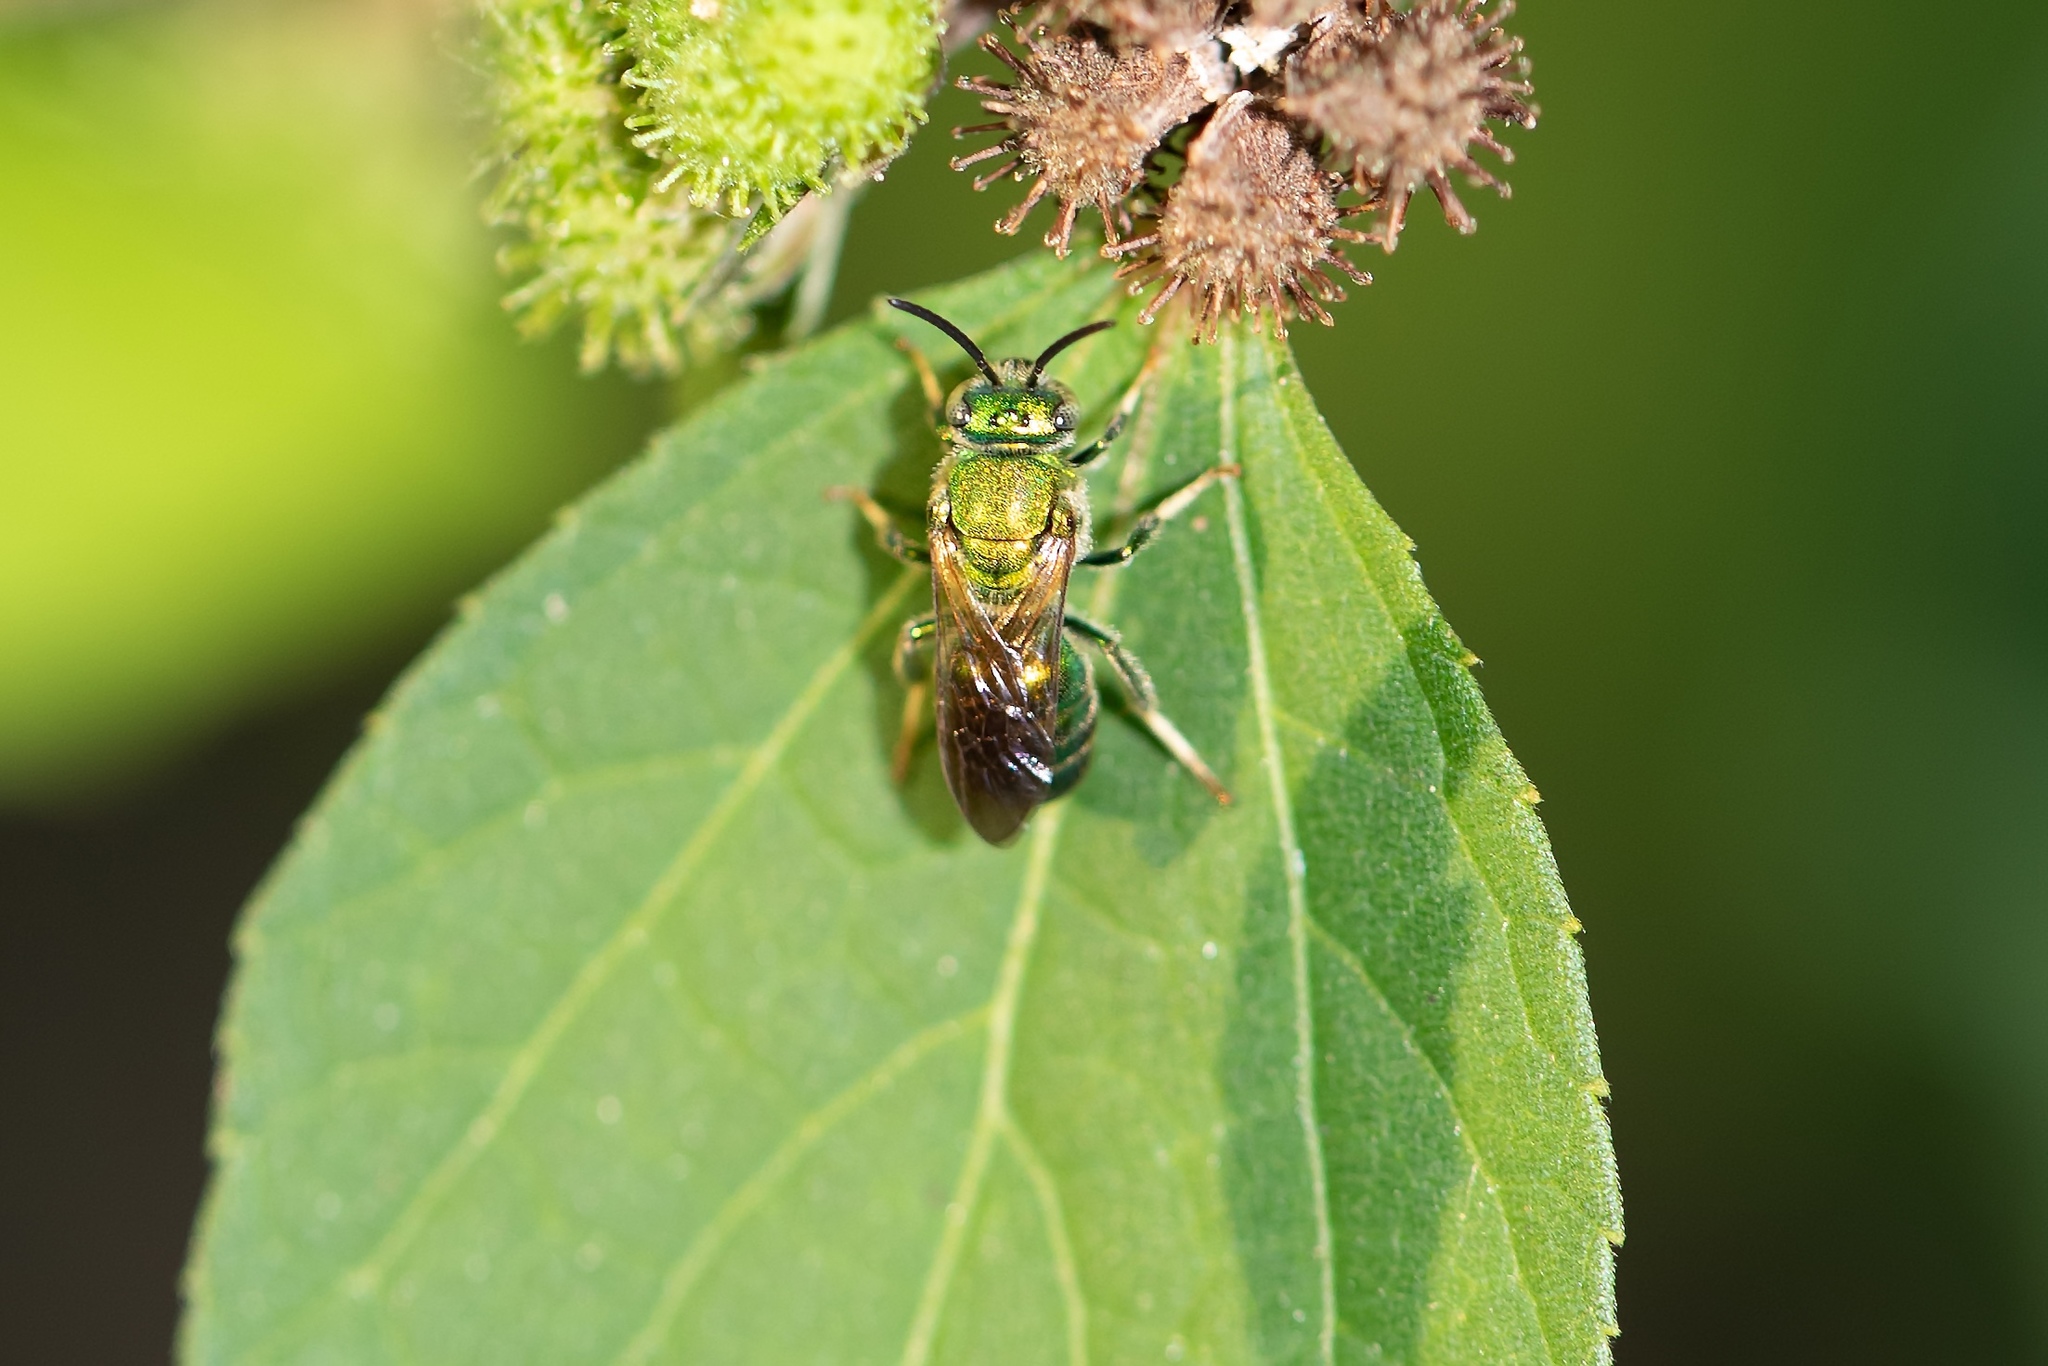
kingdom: Animalia
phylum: Arthropoda
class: Insecta
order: Hymenoptera
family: Halictidae
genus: Agapostemon
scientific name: Agapostemon splendens
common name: Brown-winged striped sweat bee
